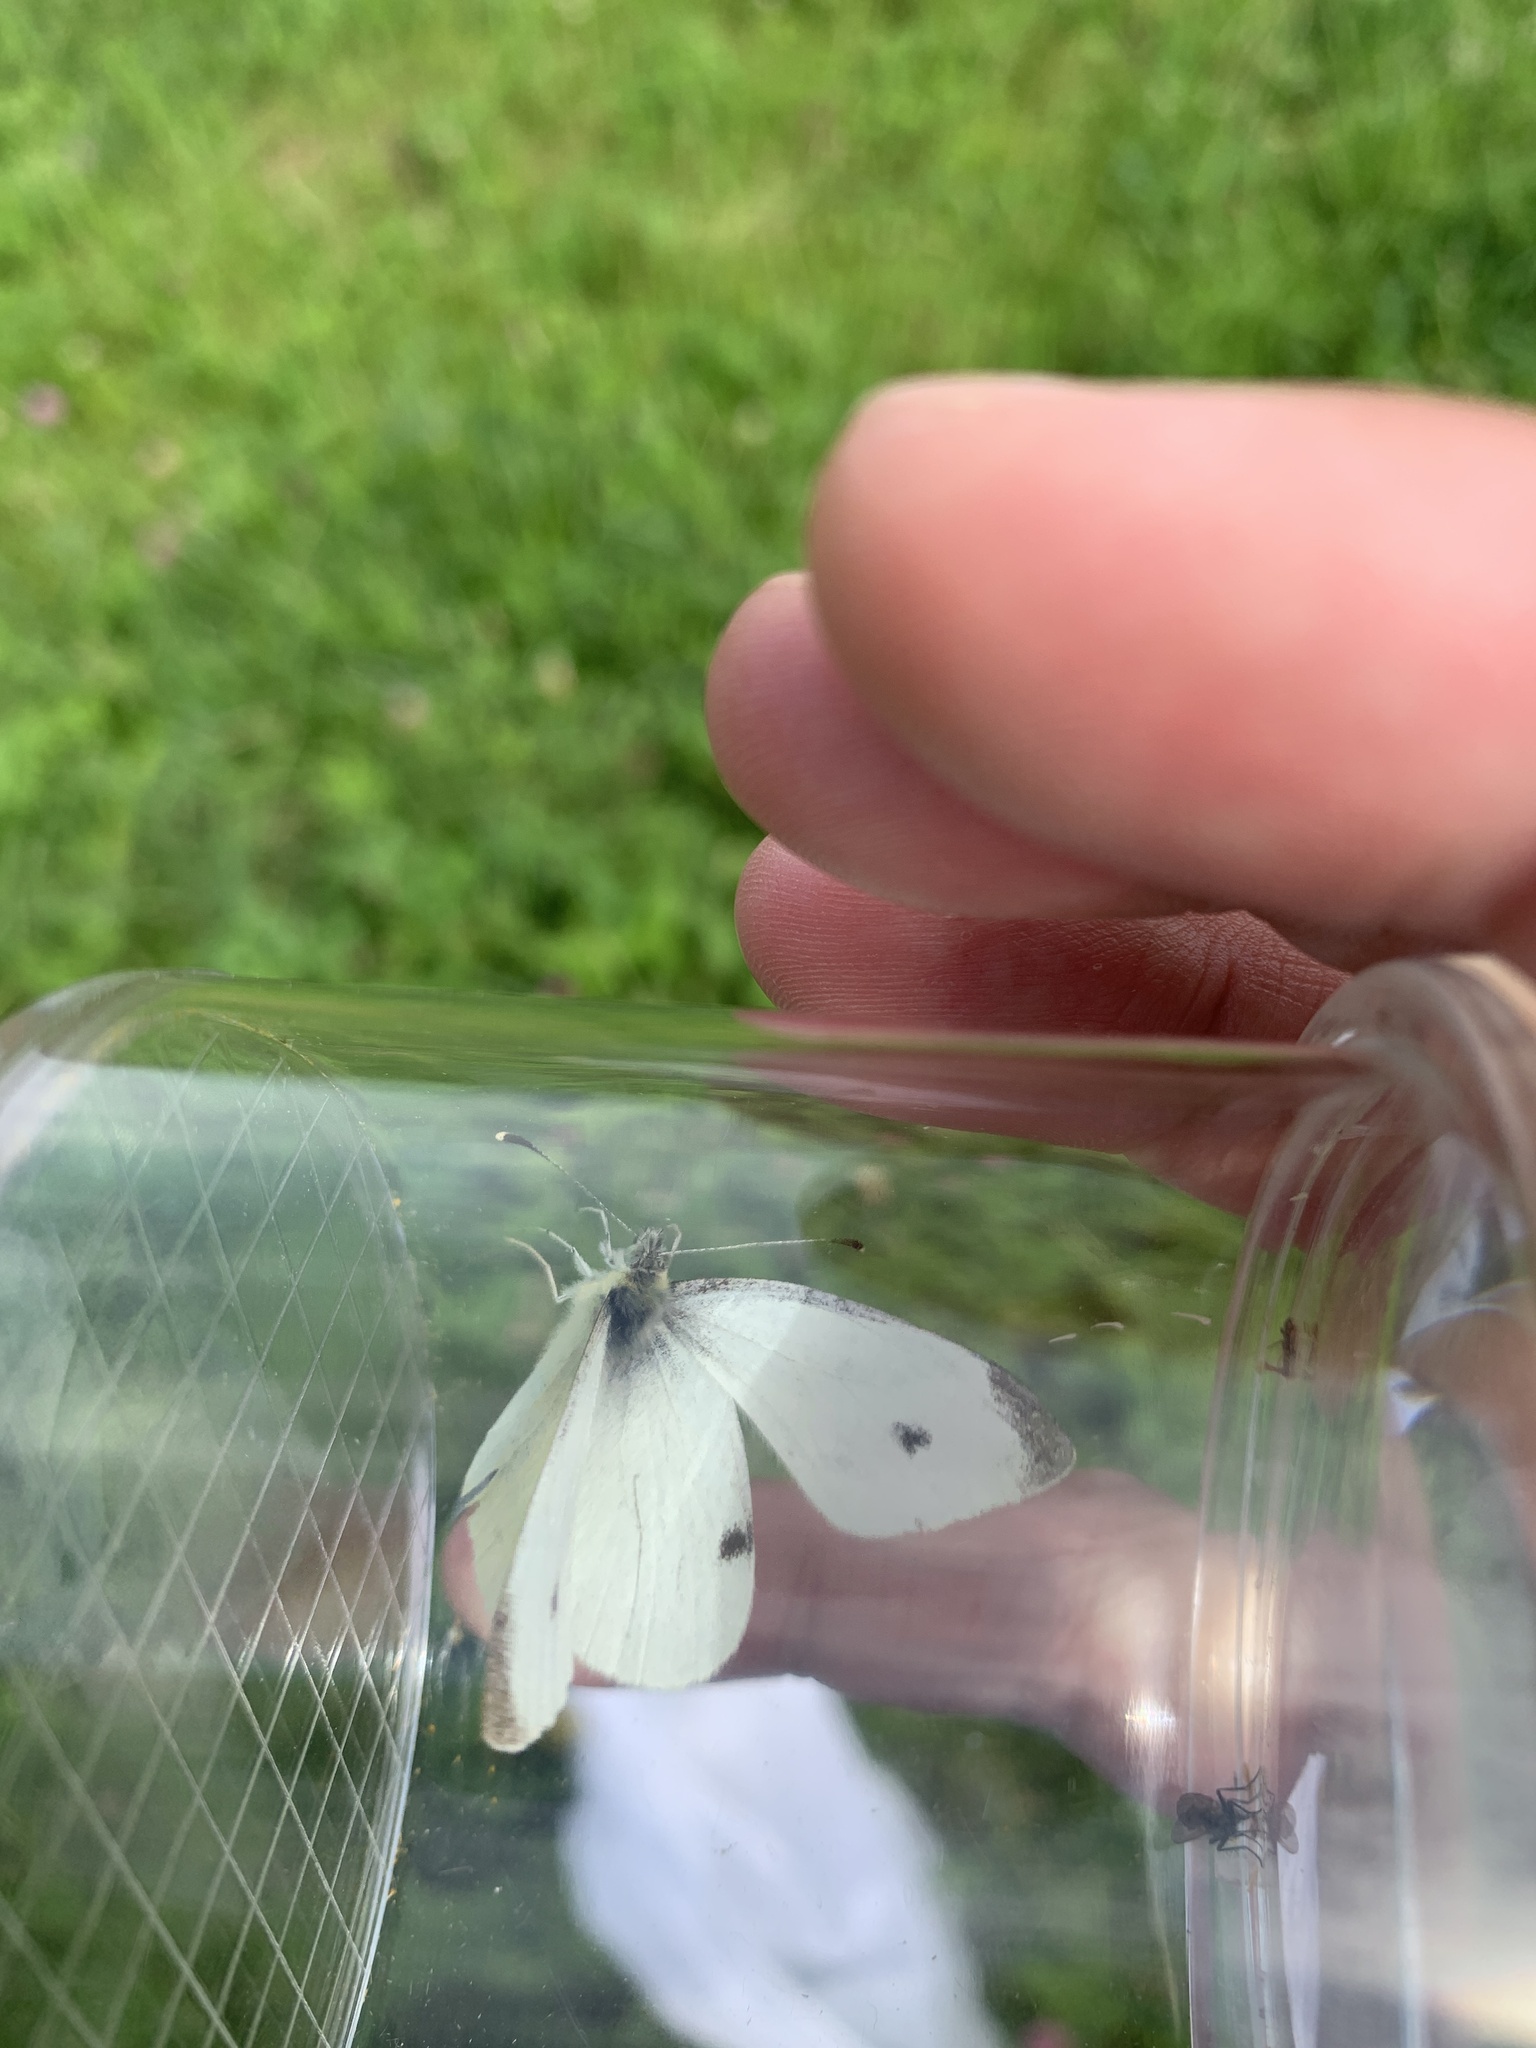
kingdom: Animalia
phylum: Arthropoda
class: Insecta
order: Lepidoptera
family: Pieridae
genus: Pieris
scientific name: Pieris rapae
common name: Small white
